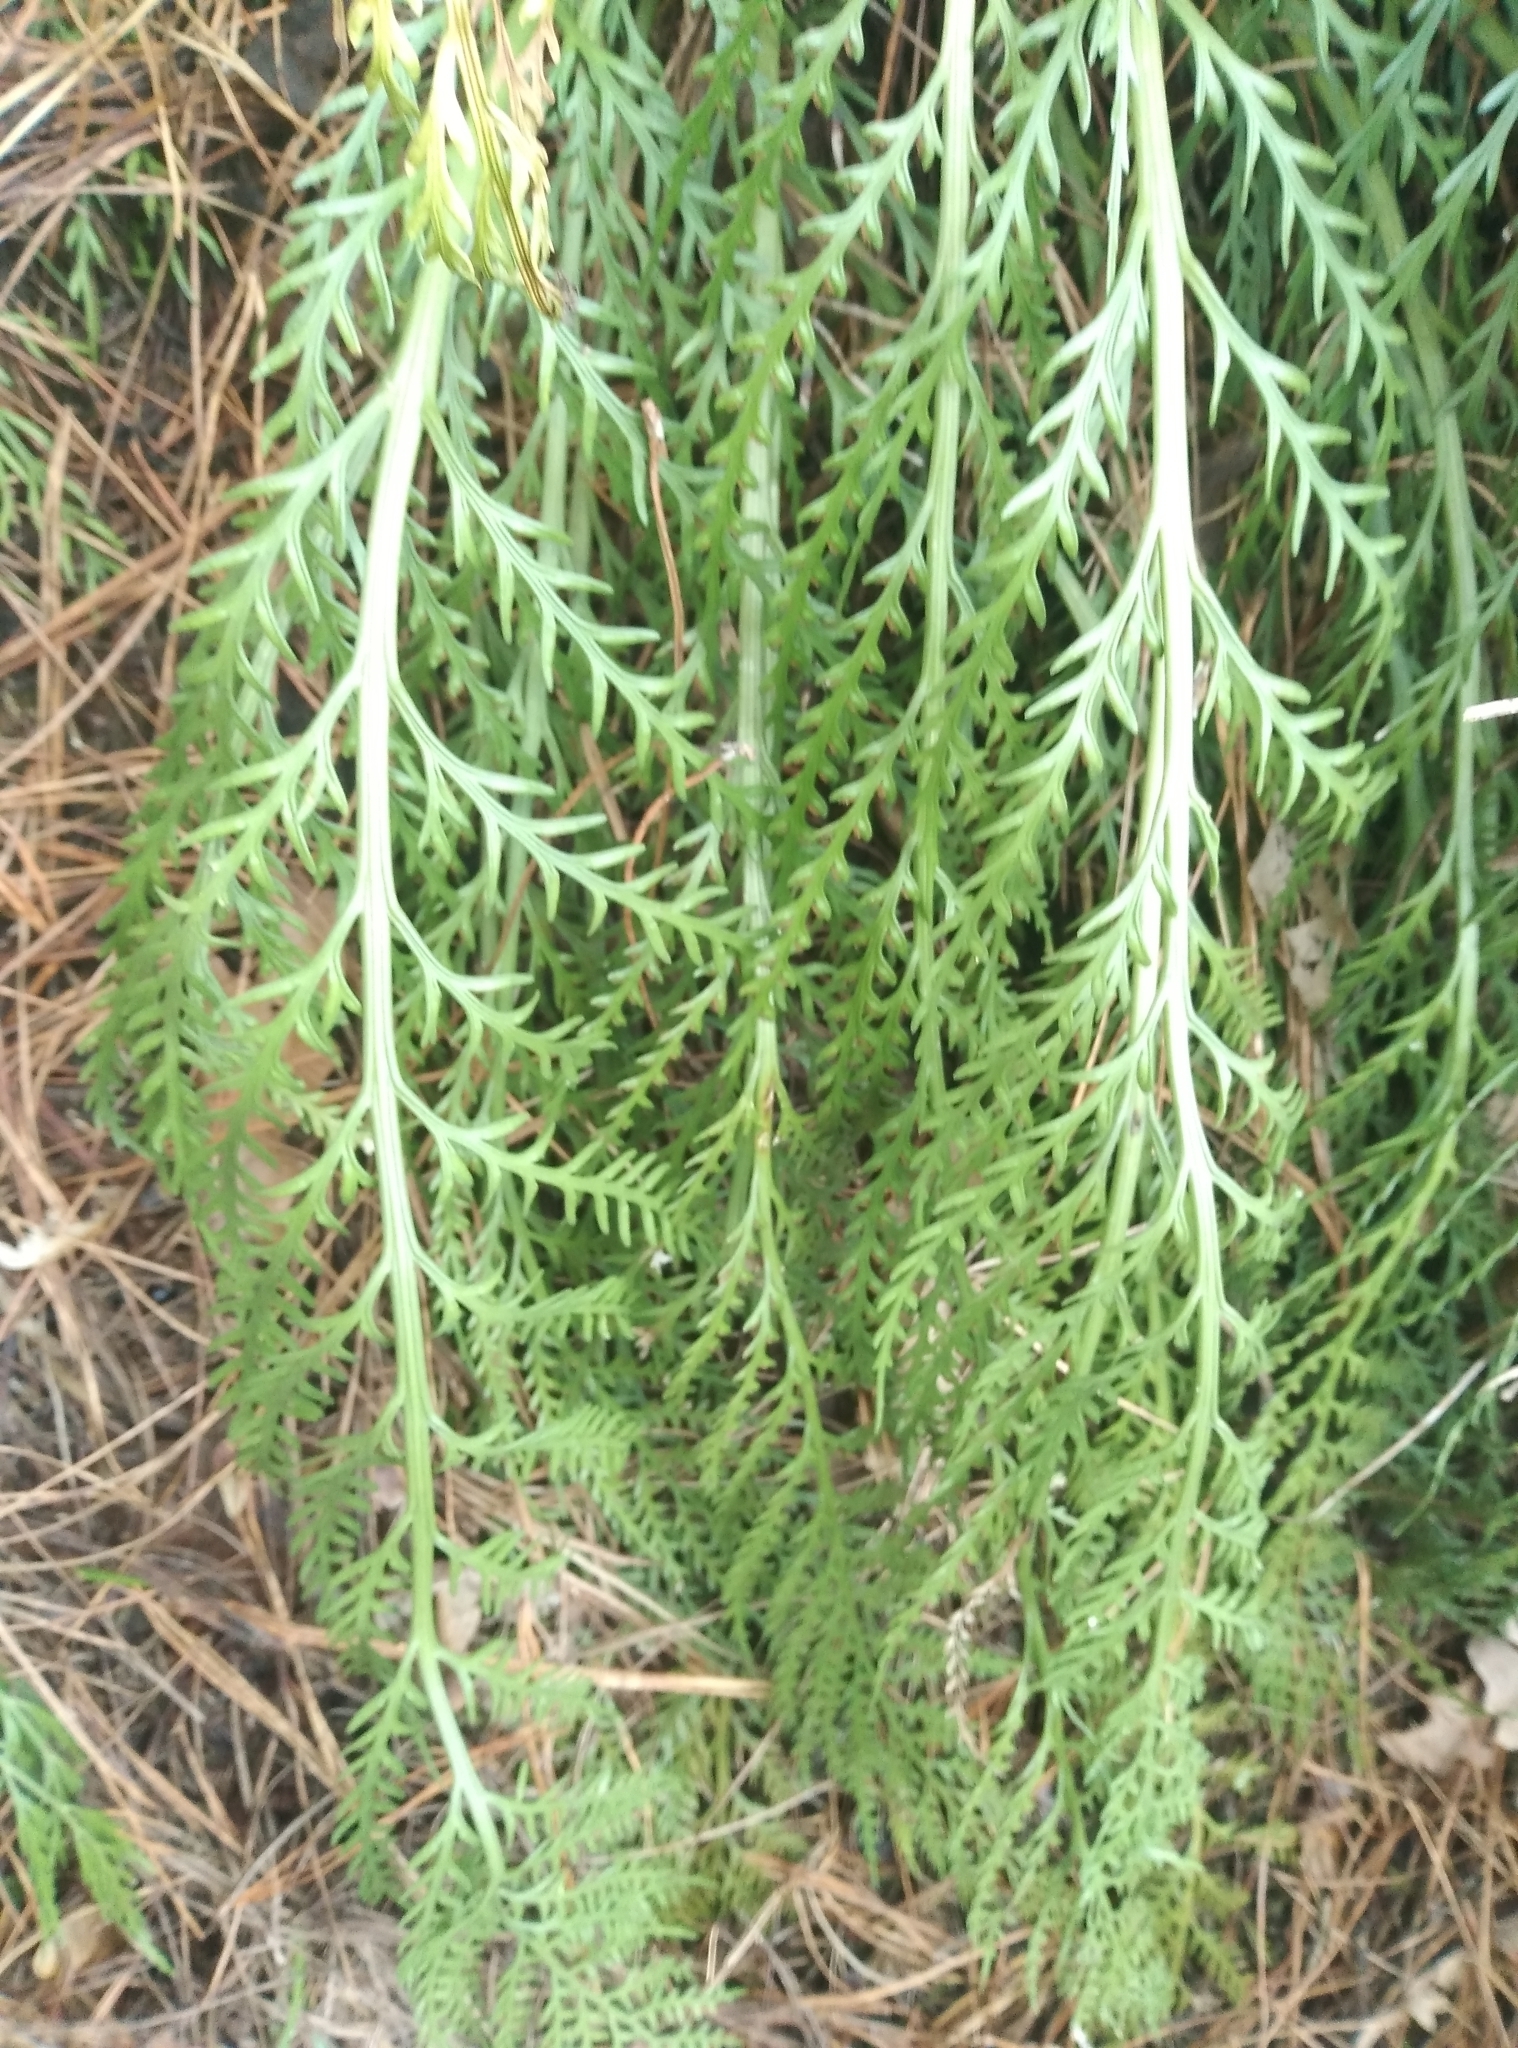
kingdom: Plantae
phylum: Tracheophyta
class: Polypodiopsida
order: Polypodiales
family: Aspleniaceae
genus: Asplenium
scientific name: Asplenium flaccidum
